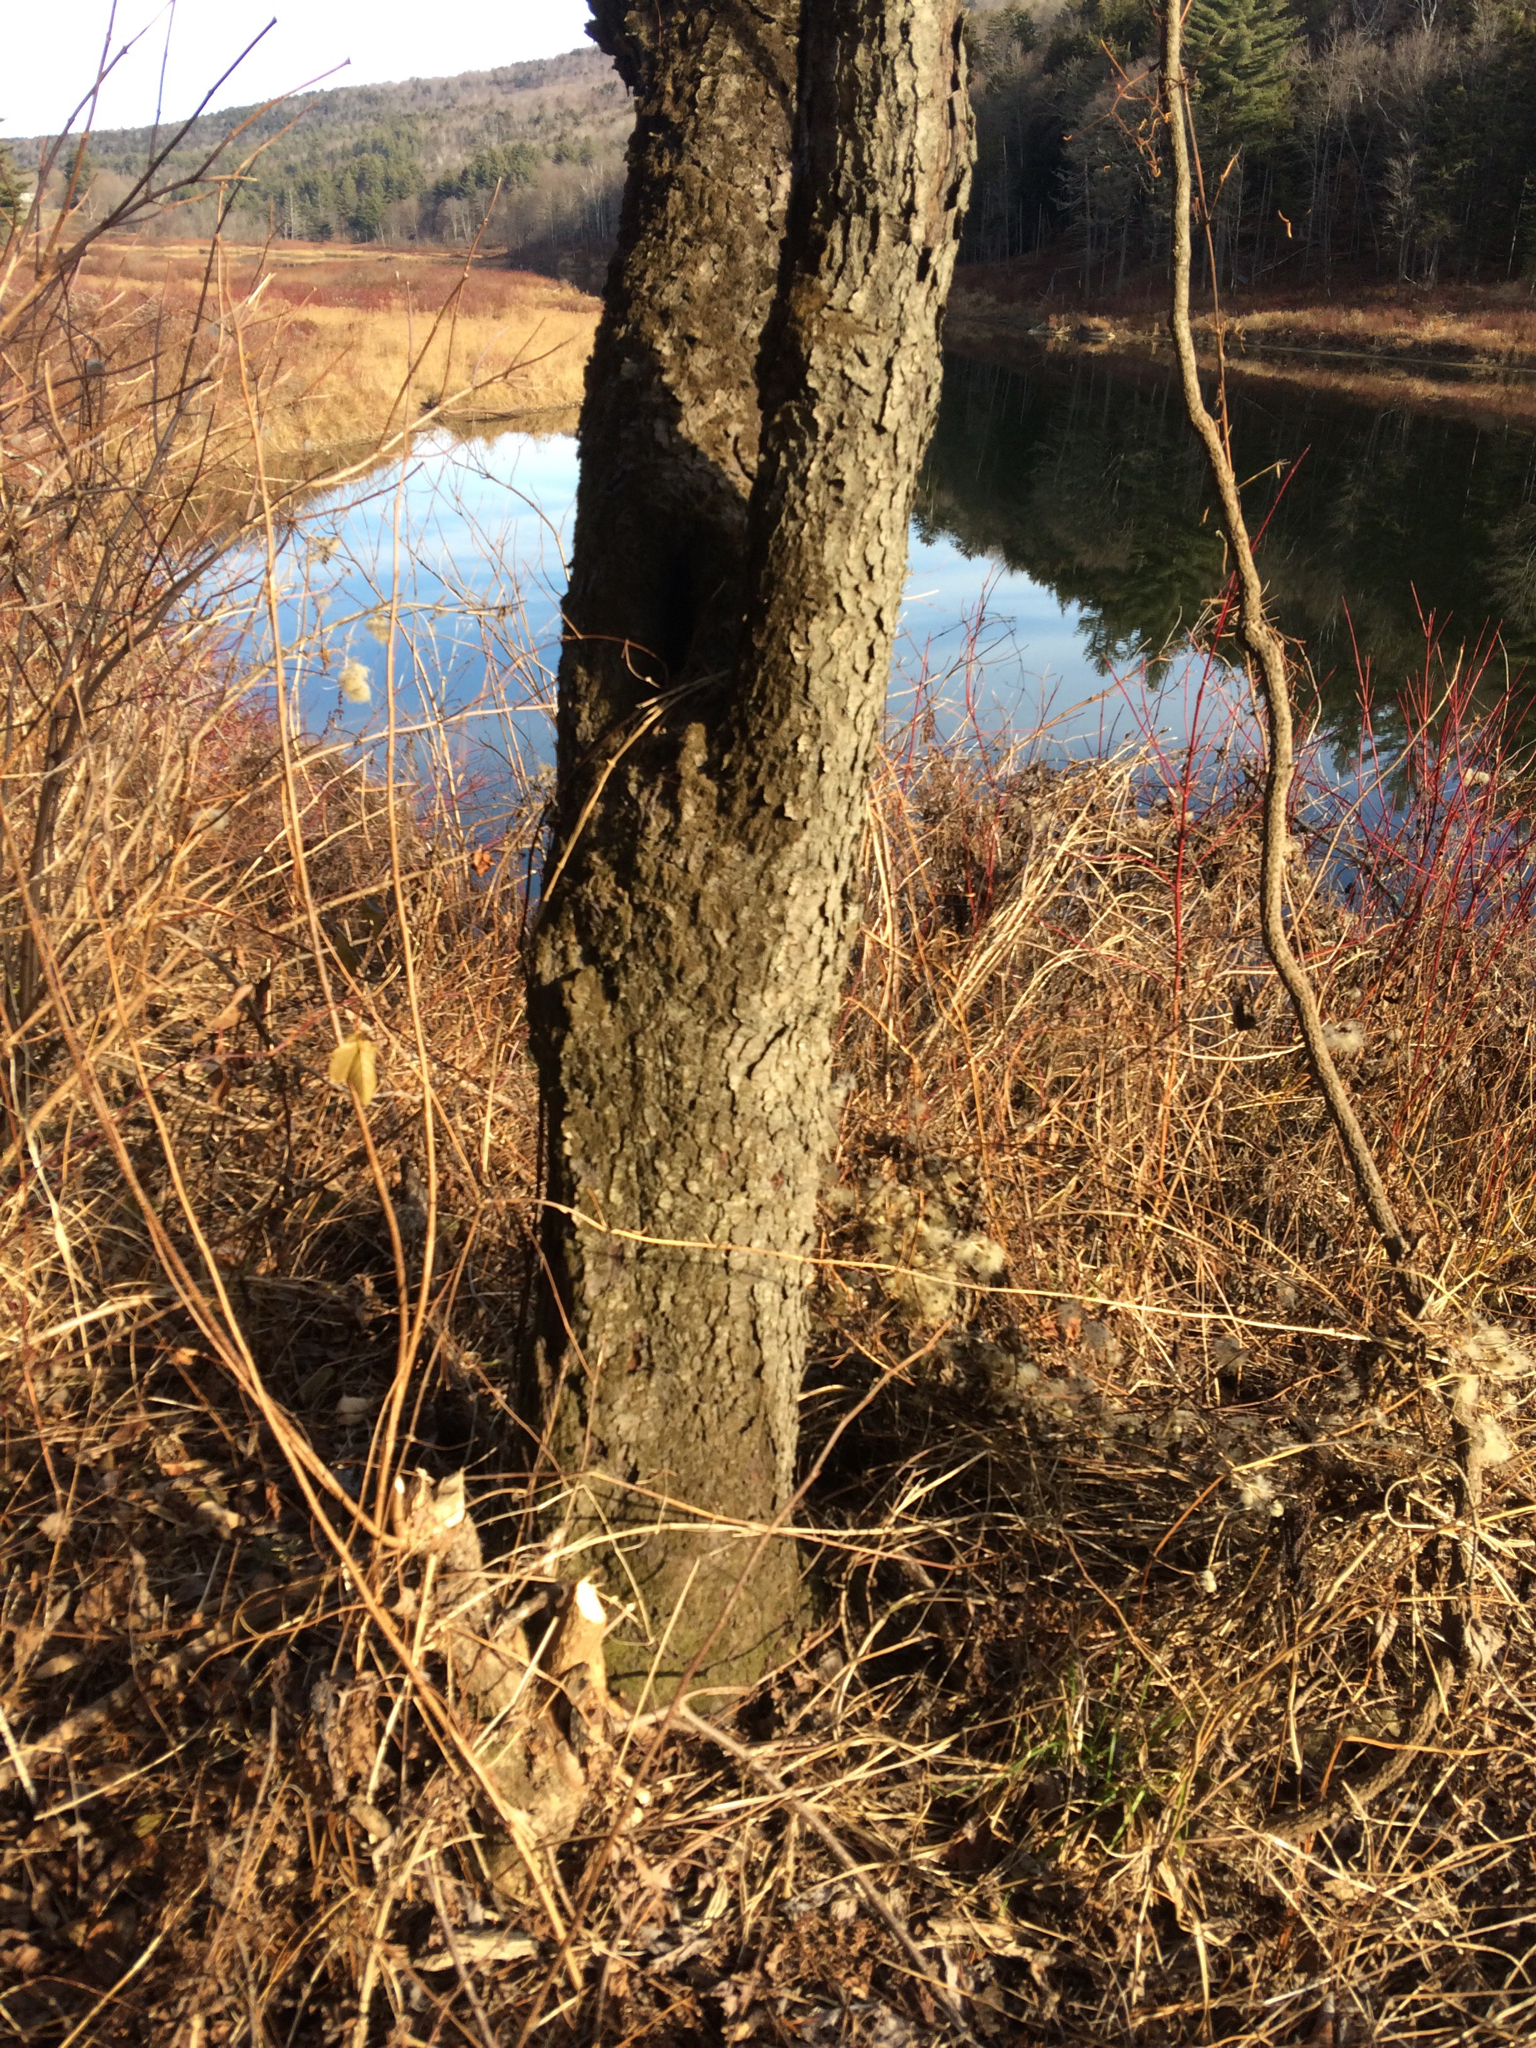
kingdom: Plantae
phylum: Tracheophyta
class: Magnoliopsida
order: Rosales
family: Rosaceae
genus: Prunus
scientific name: Prunus serotina
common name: Black cherry
